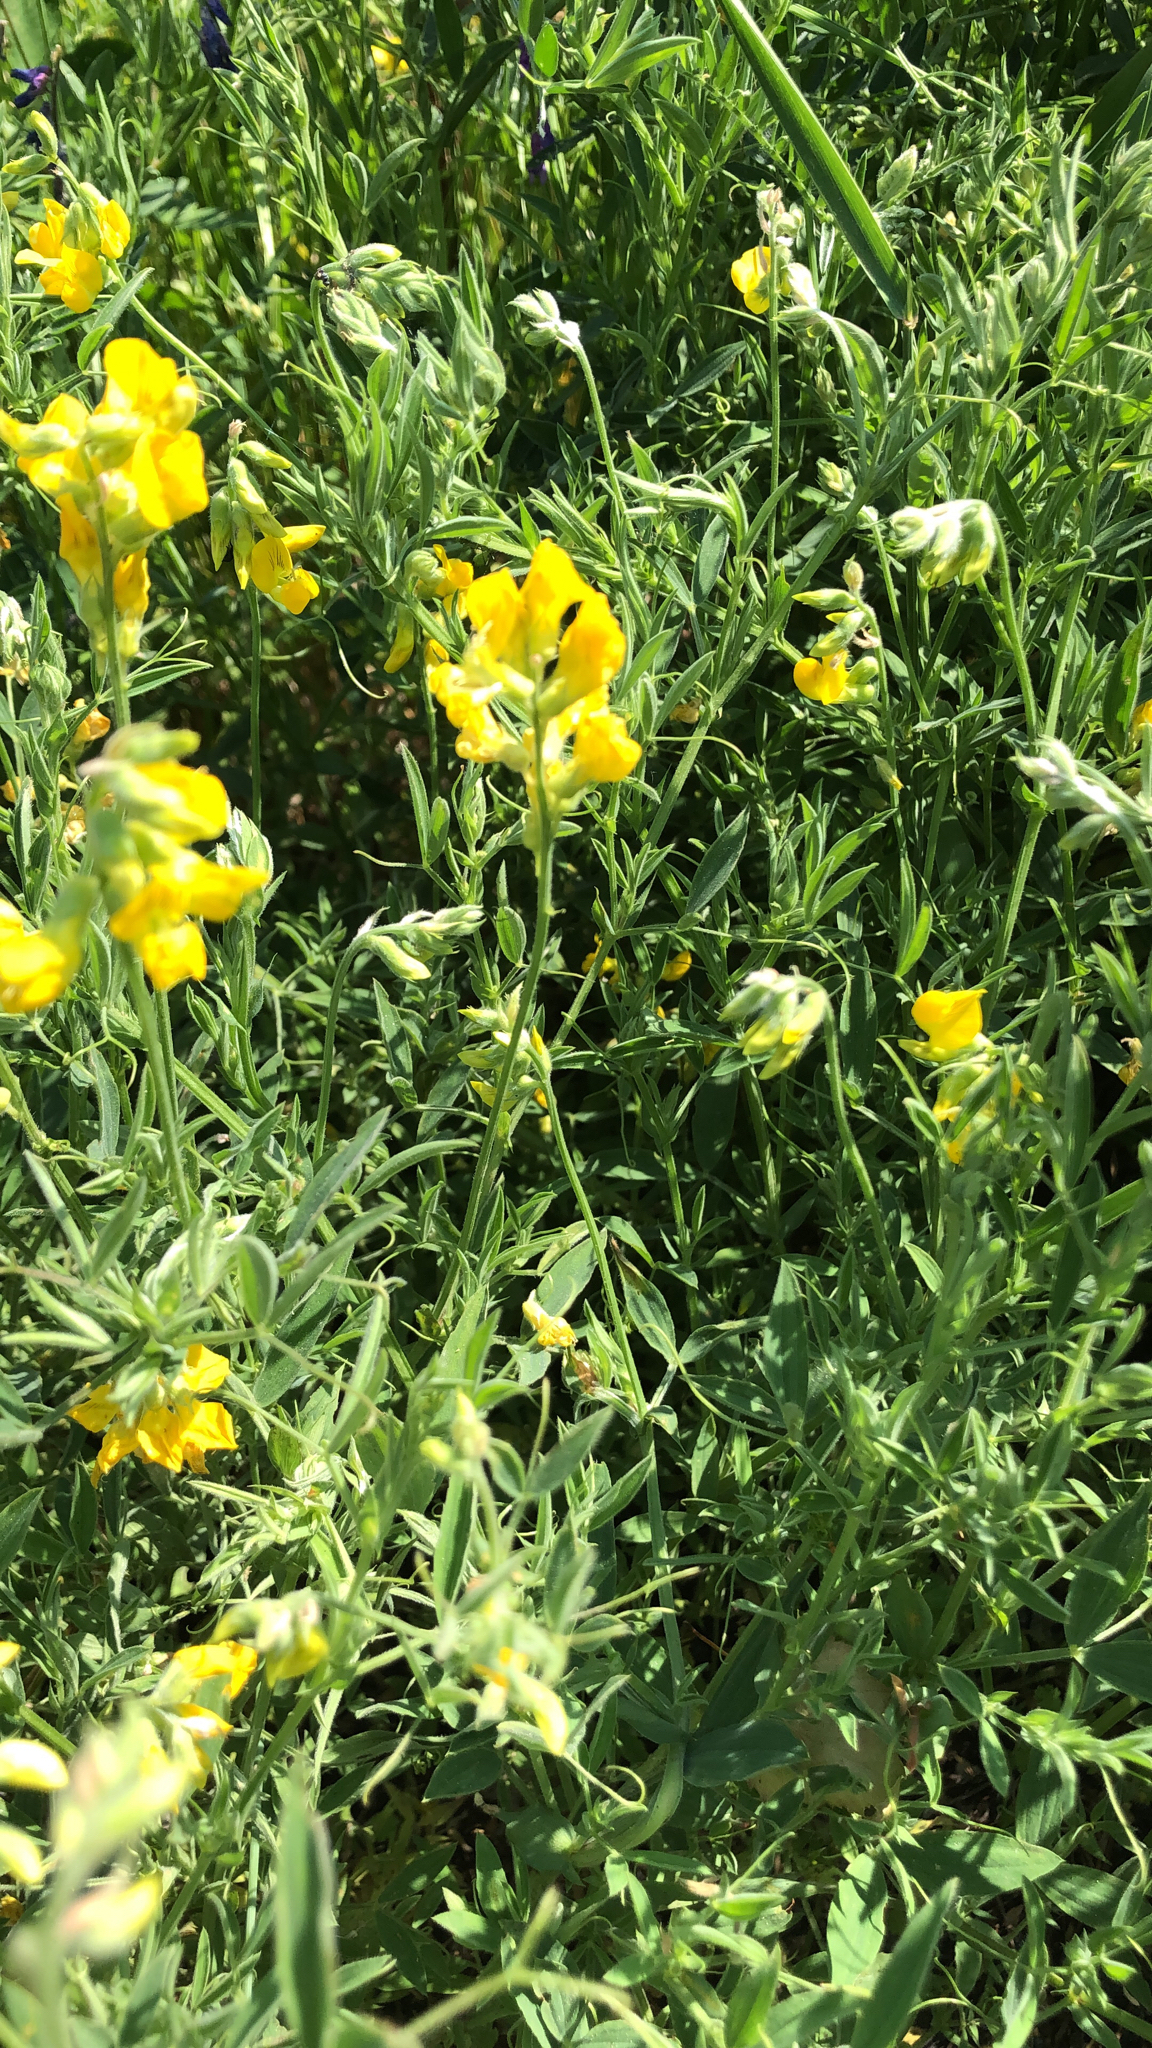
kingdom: Plantae
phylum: Tracheophyta
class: Magnoliopsida
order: Fabales
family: Fabaceae
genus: Lathyrus
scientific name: Lathyrus pratensis
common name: Meadow vetchling
